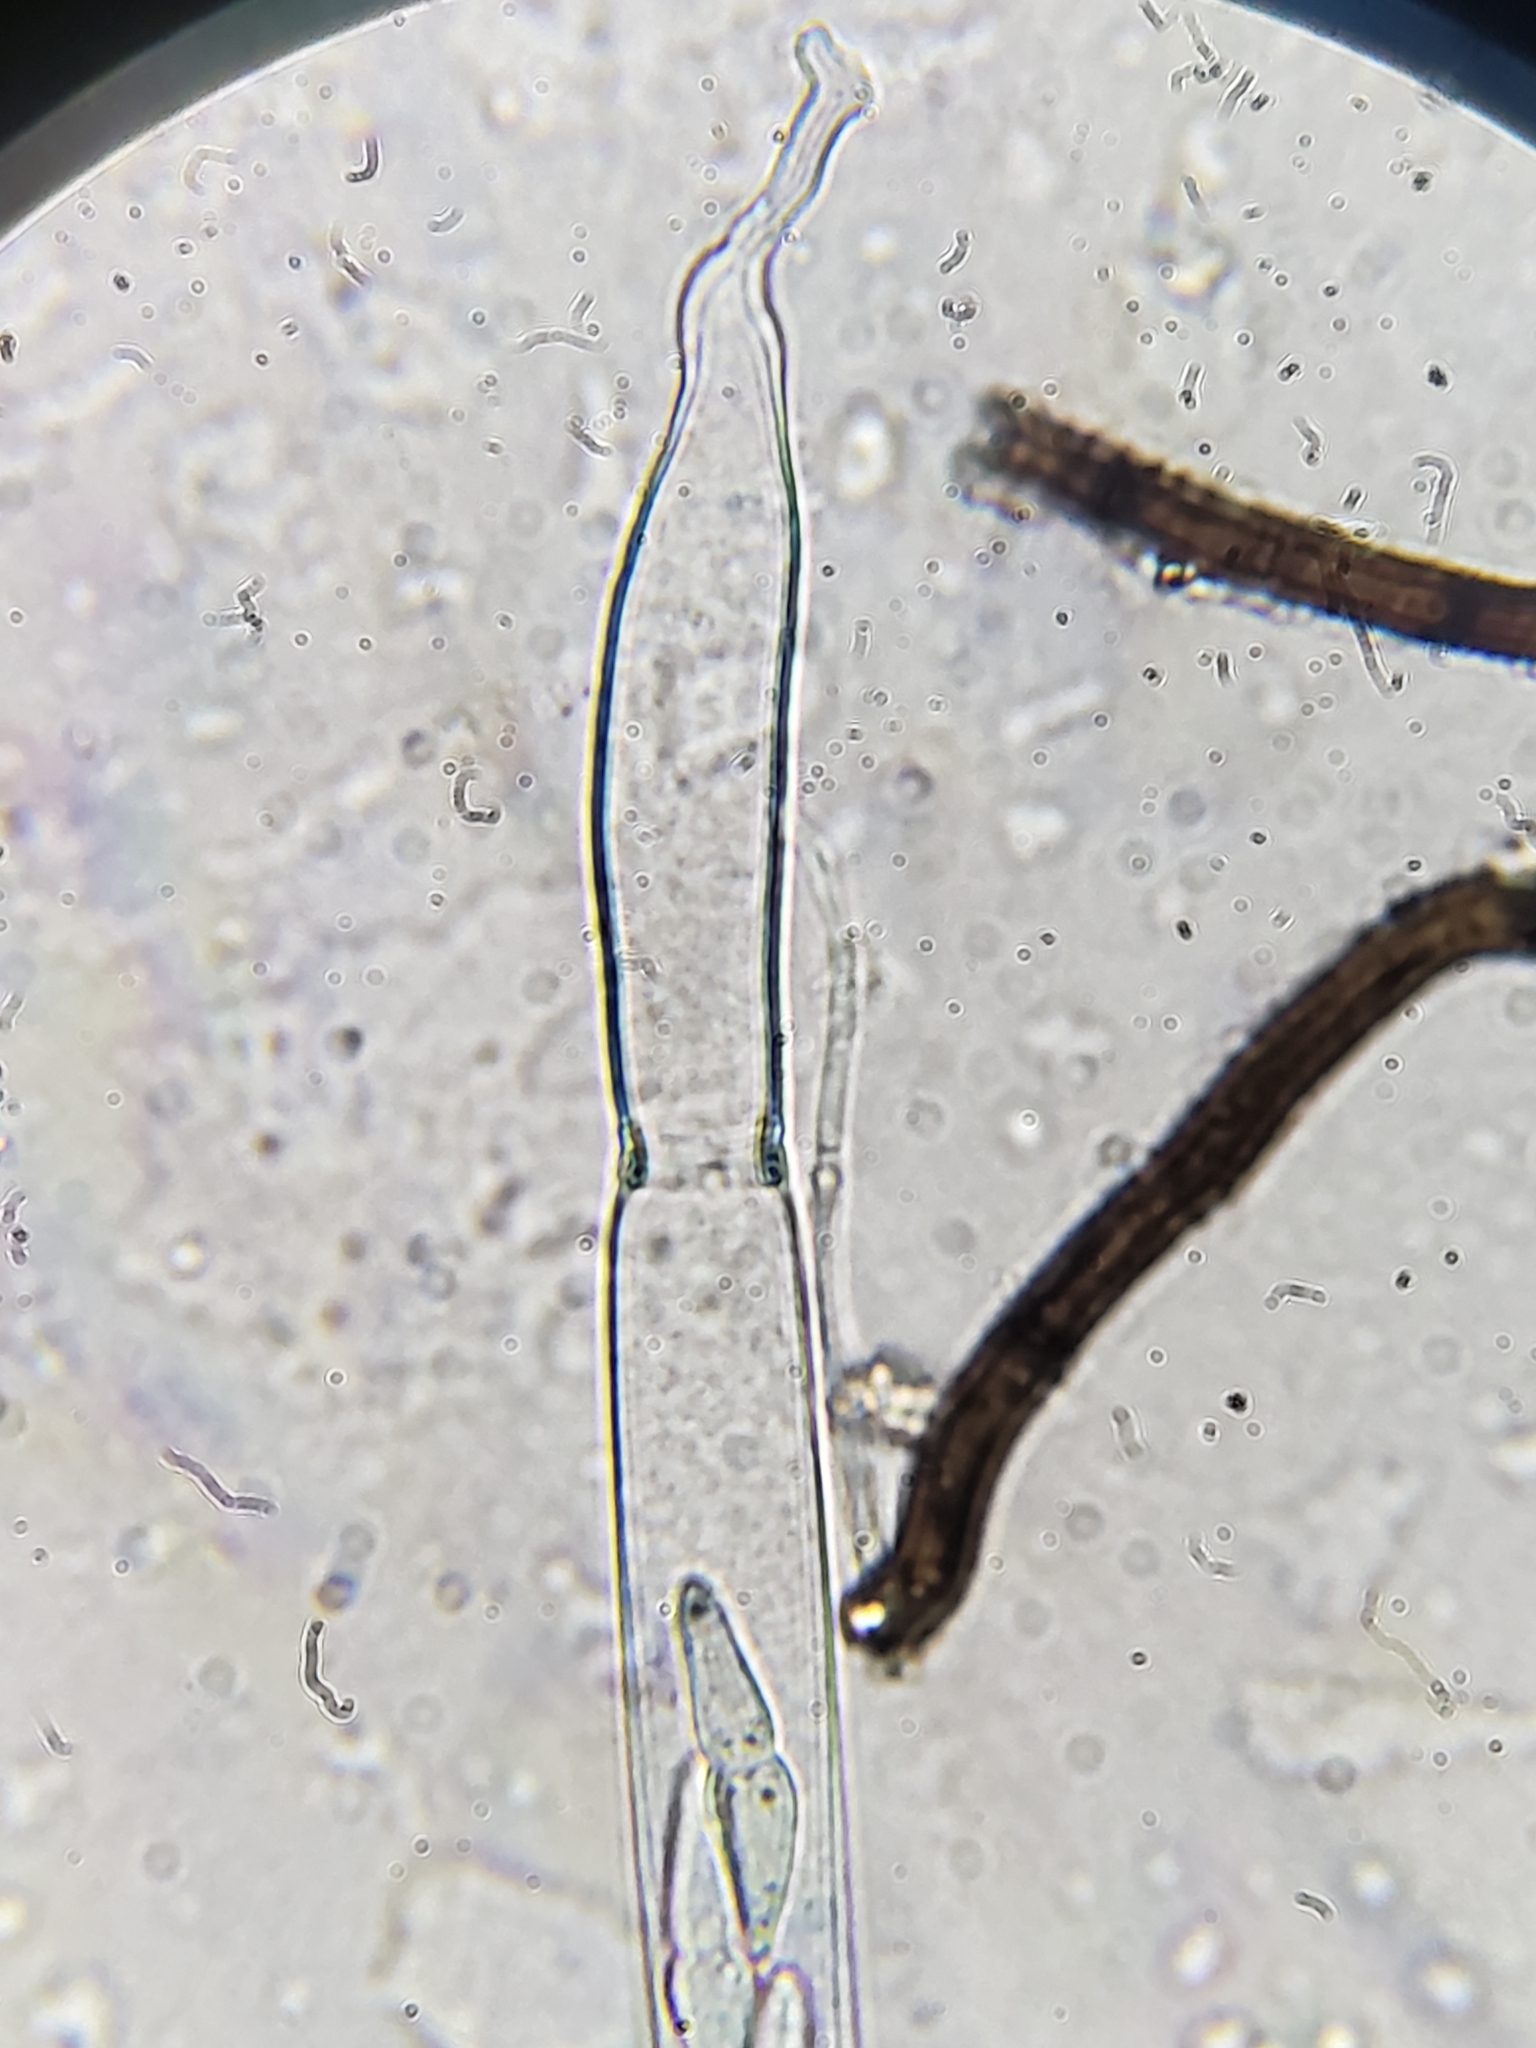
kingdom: Fungi
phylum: Ascomycota
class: Dothideomycetes
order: Mytilinidiales
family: Gloniaceae
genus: Glonium
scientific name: Glonium stellatum
